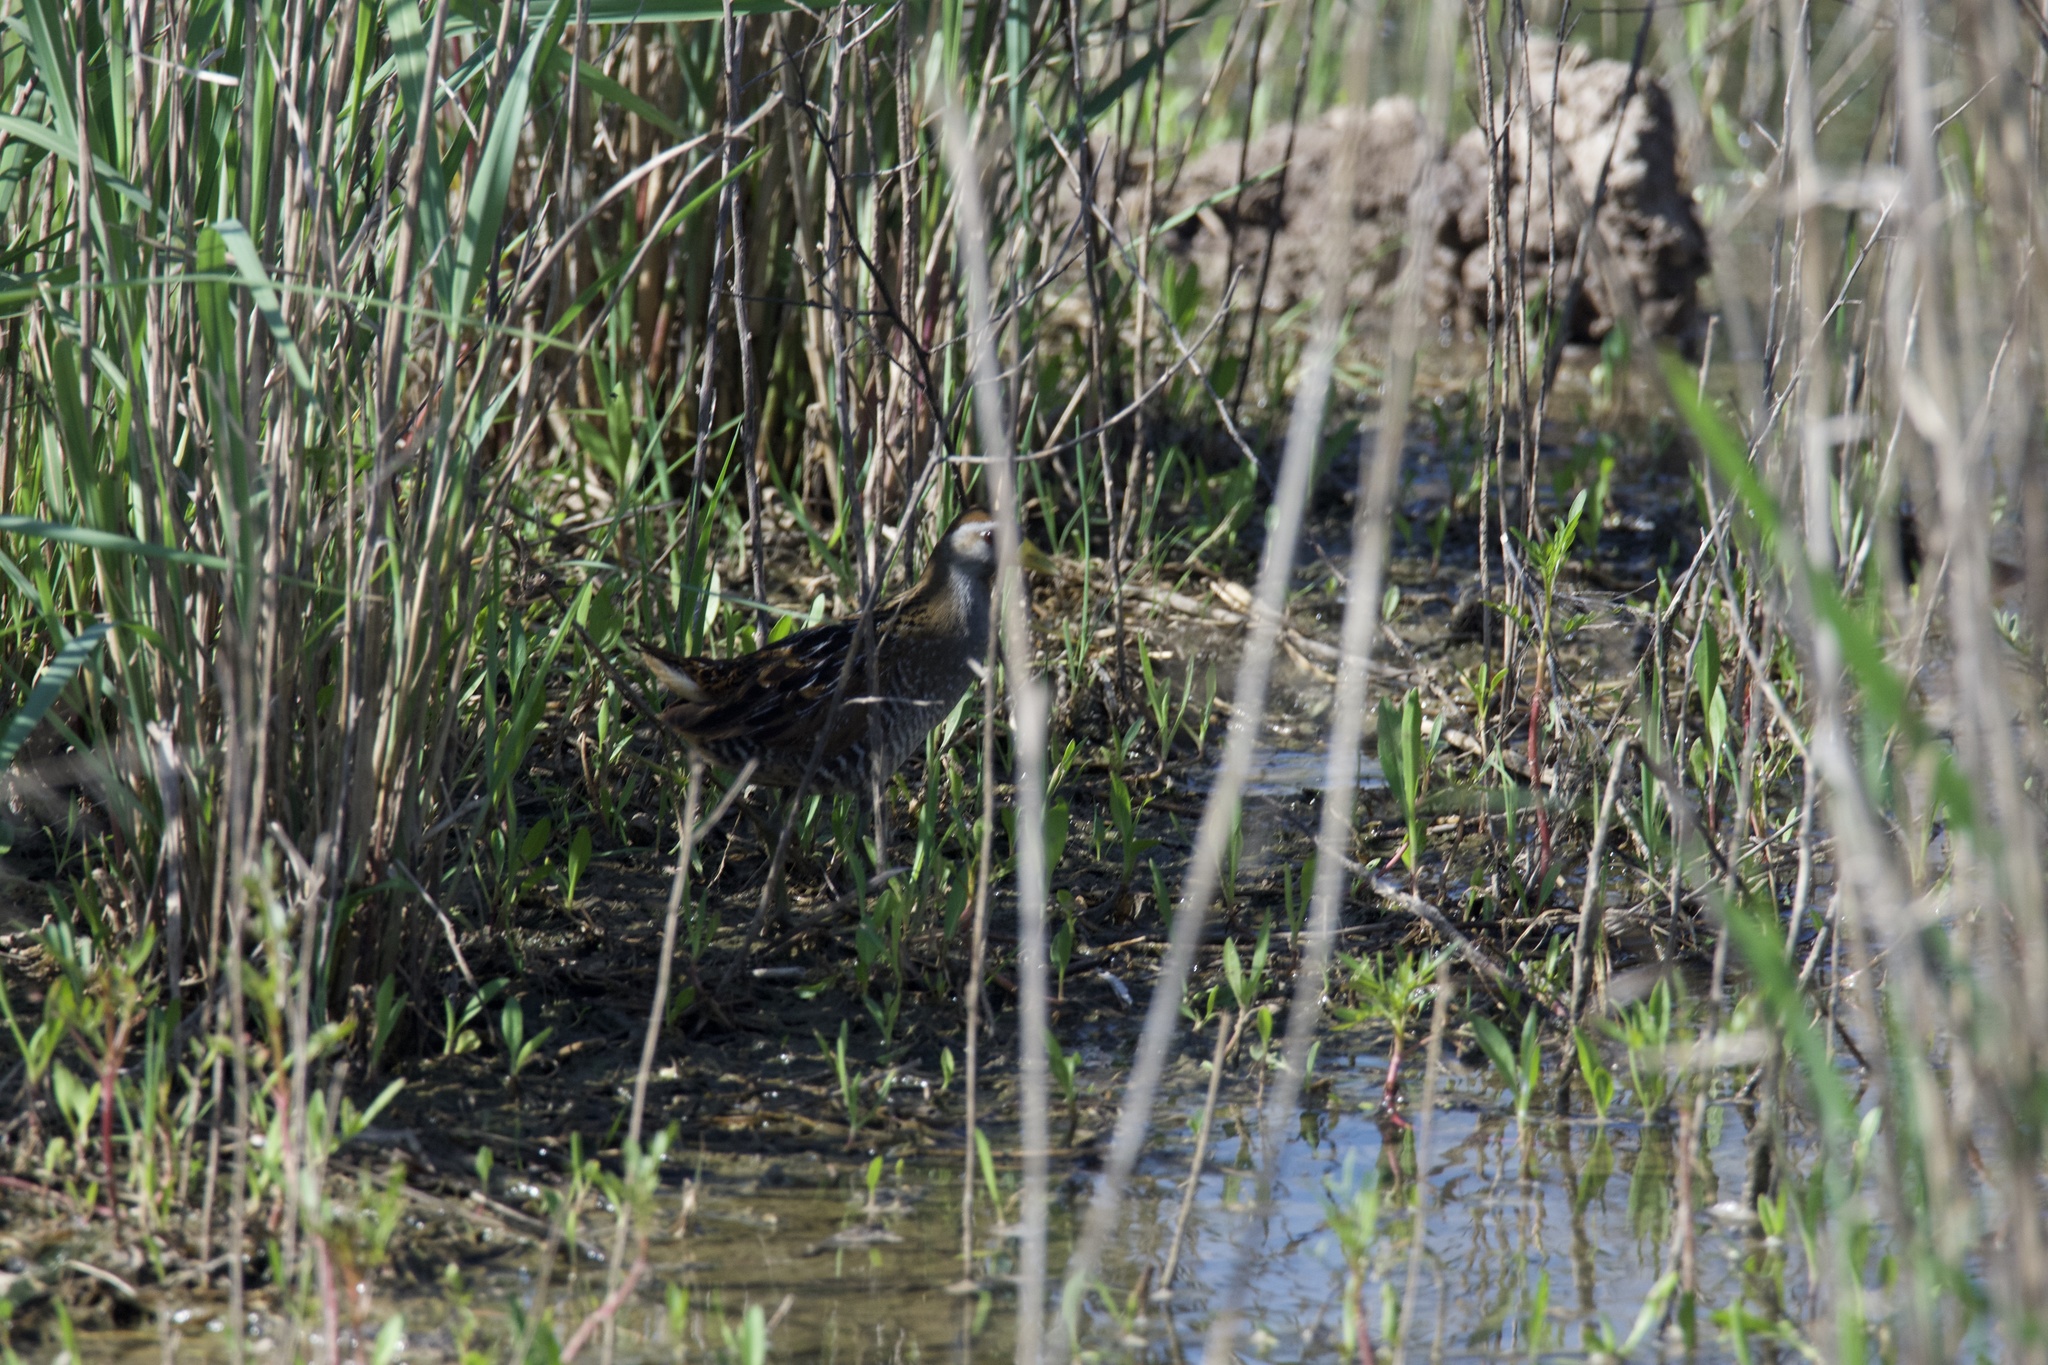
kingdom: Animalia
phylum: Chordata
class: Aves
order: Gruiformes
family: Rallidae
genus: Porzana
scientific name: Porzana carolina
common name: Sora
